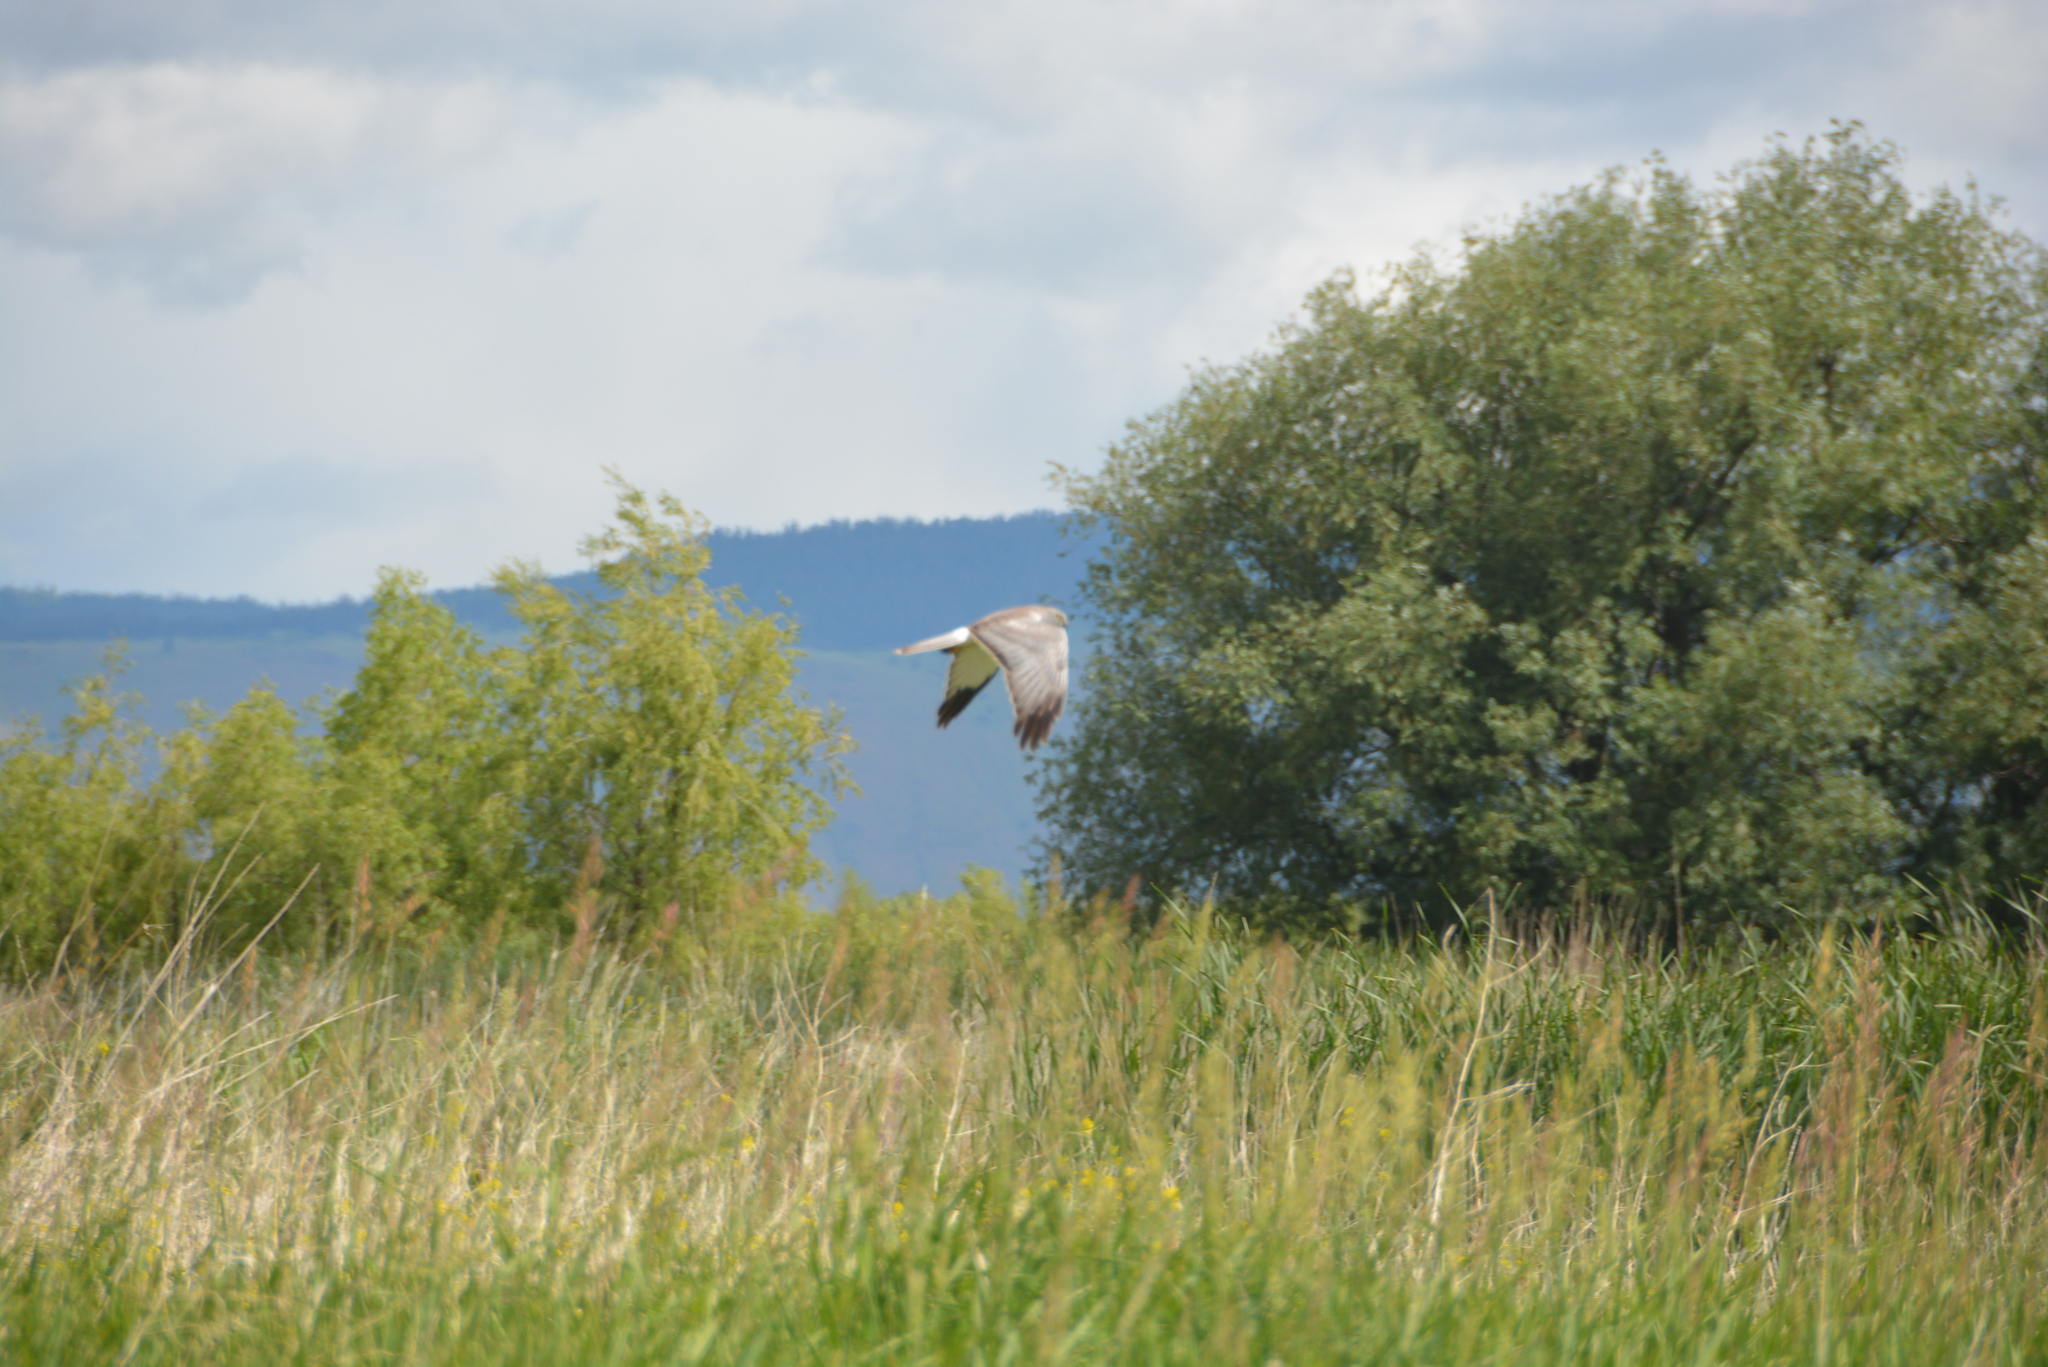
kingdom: Animalia
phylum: Chordata
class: Aves
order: Accipitriformes
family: Accipitridae
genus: Circus
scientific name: Circus cyaneus
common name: Hen harrier
